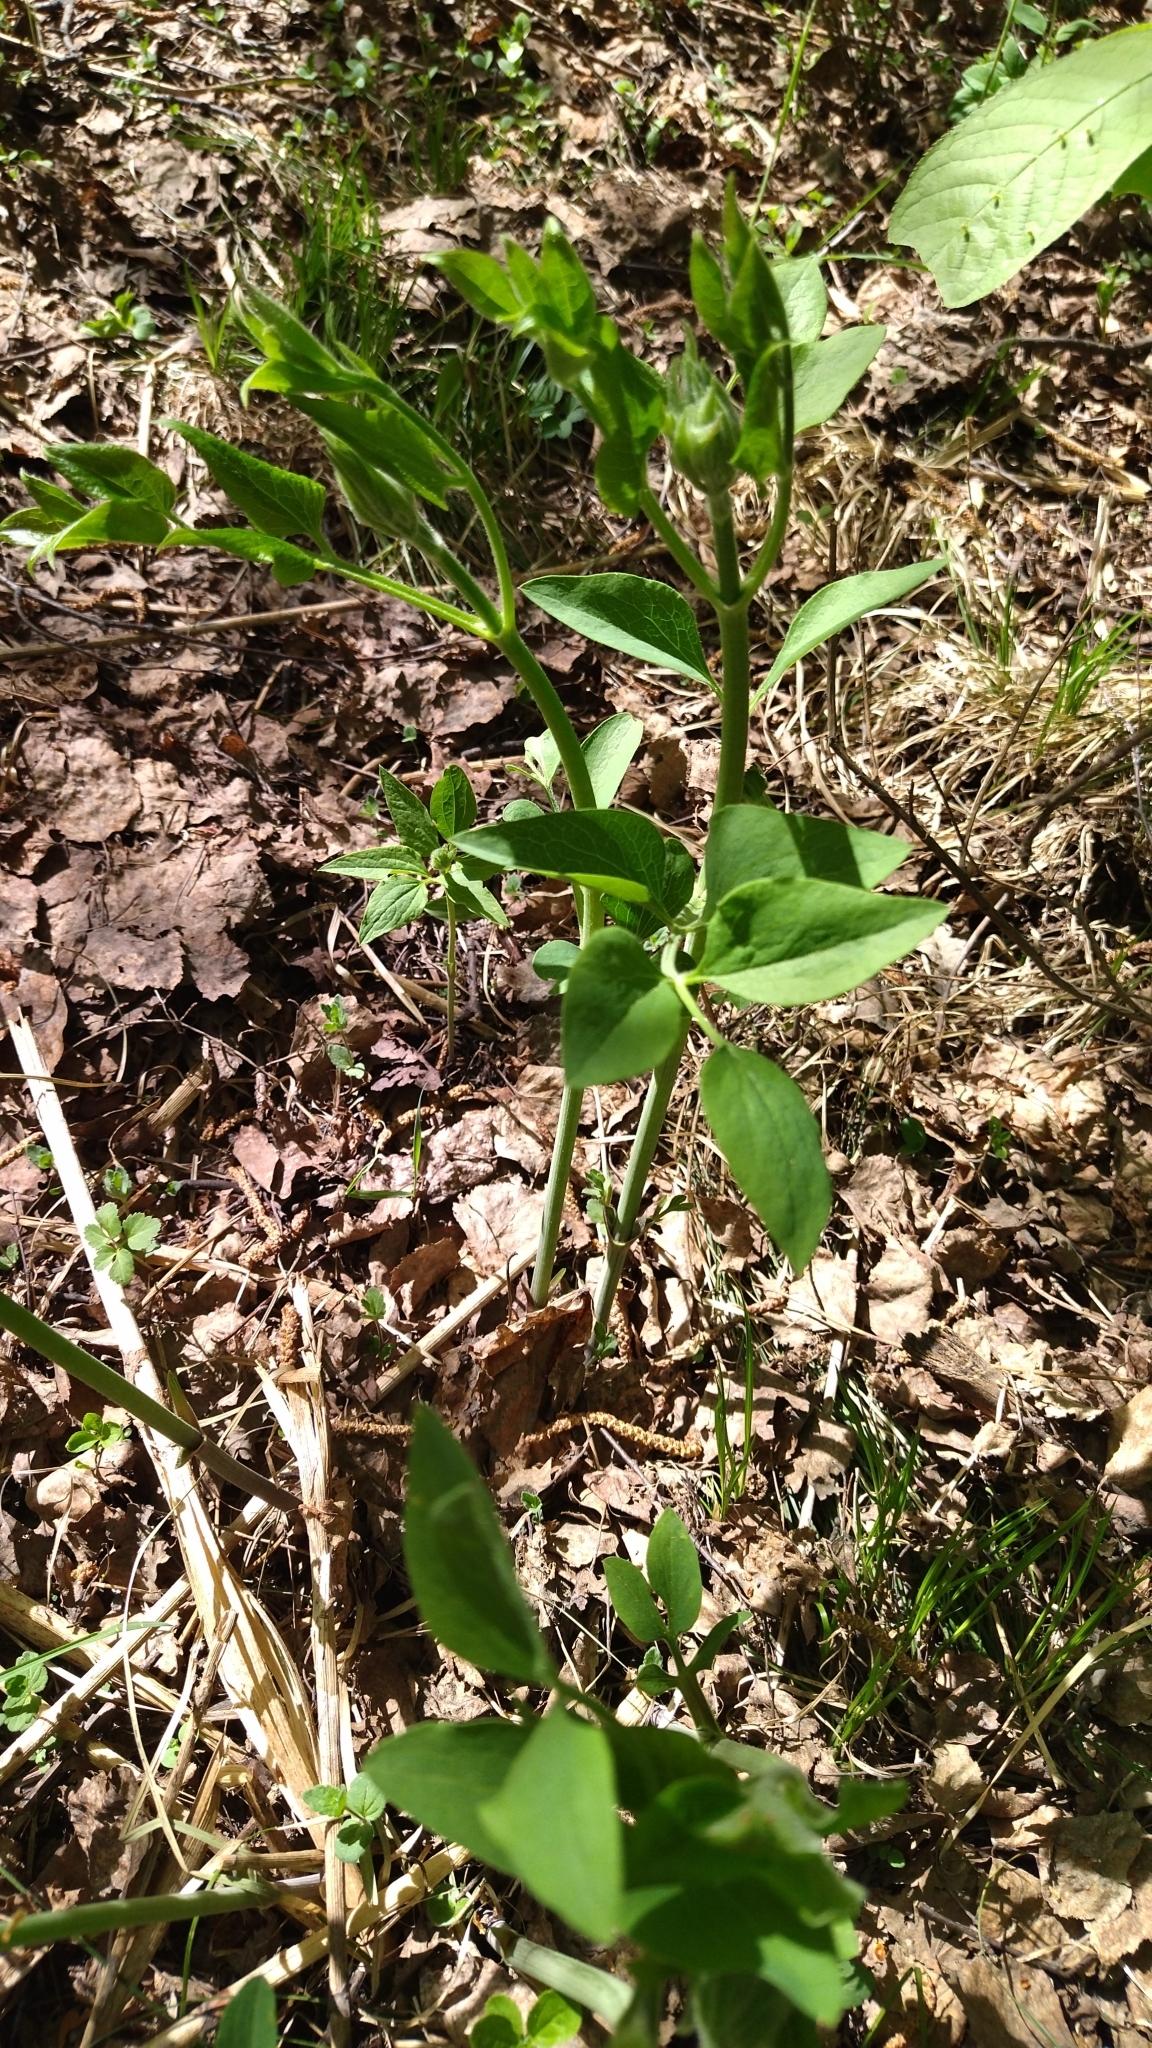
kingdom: Plantae
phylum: Tracheophyta
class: Magnoliopsida
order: Ranunculales
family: Ranunculaceae
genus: Clematis
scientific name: Clematis
